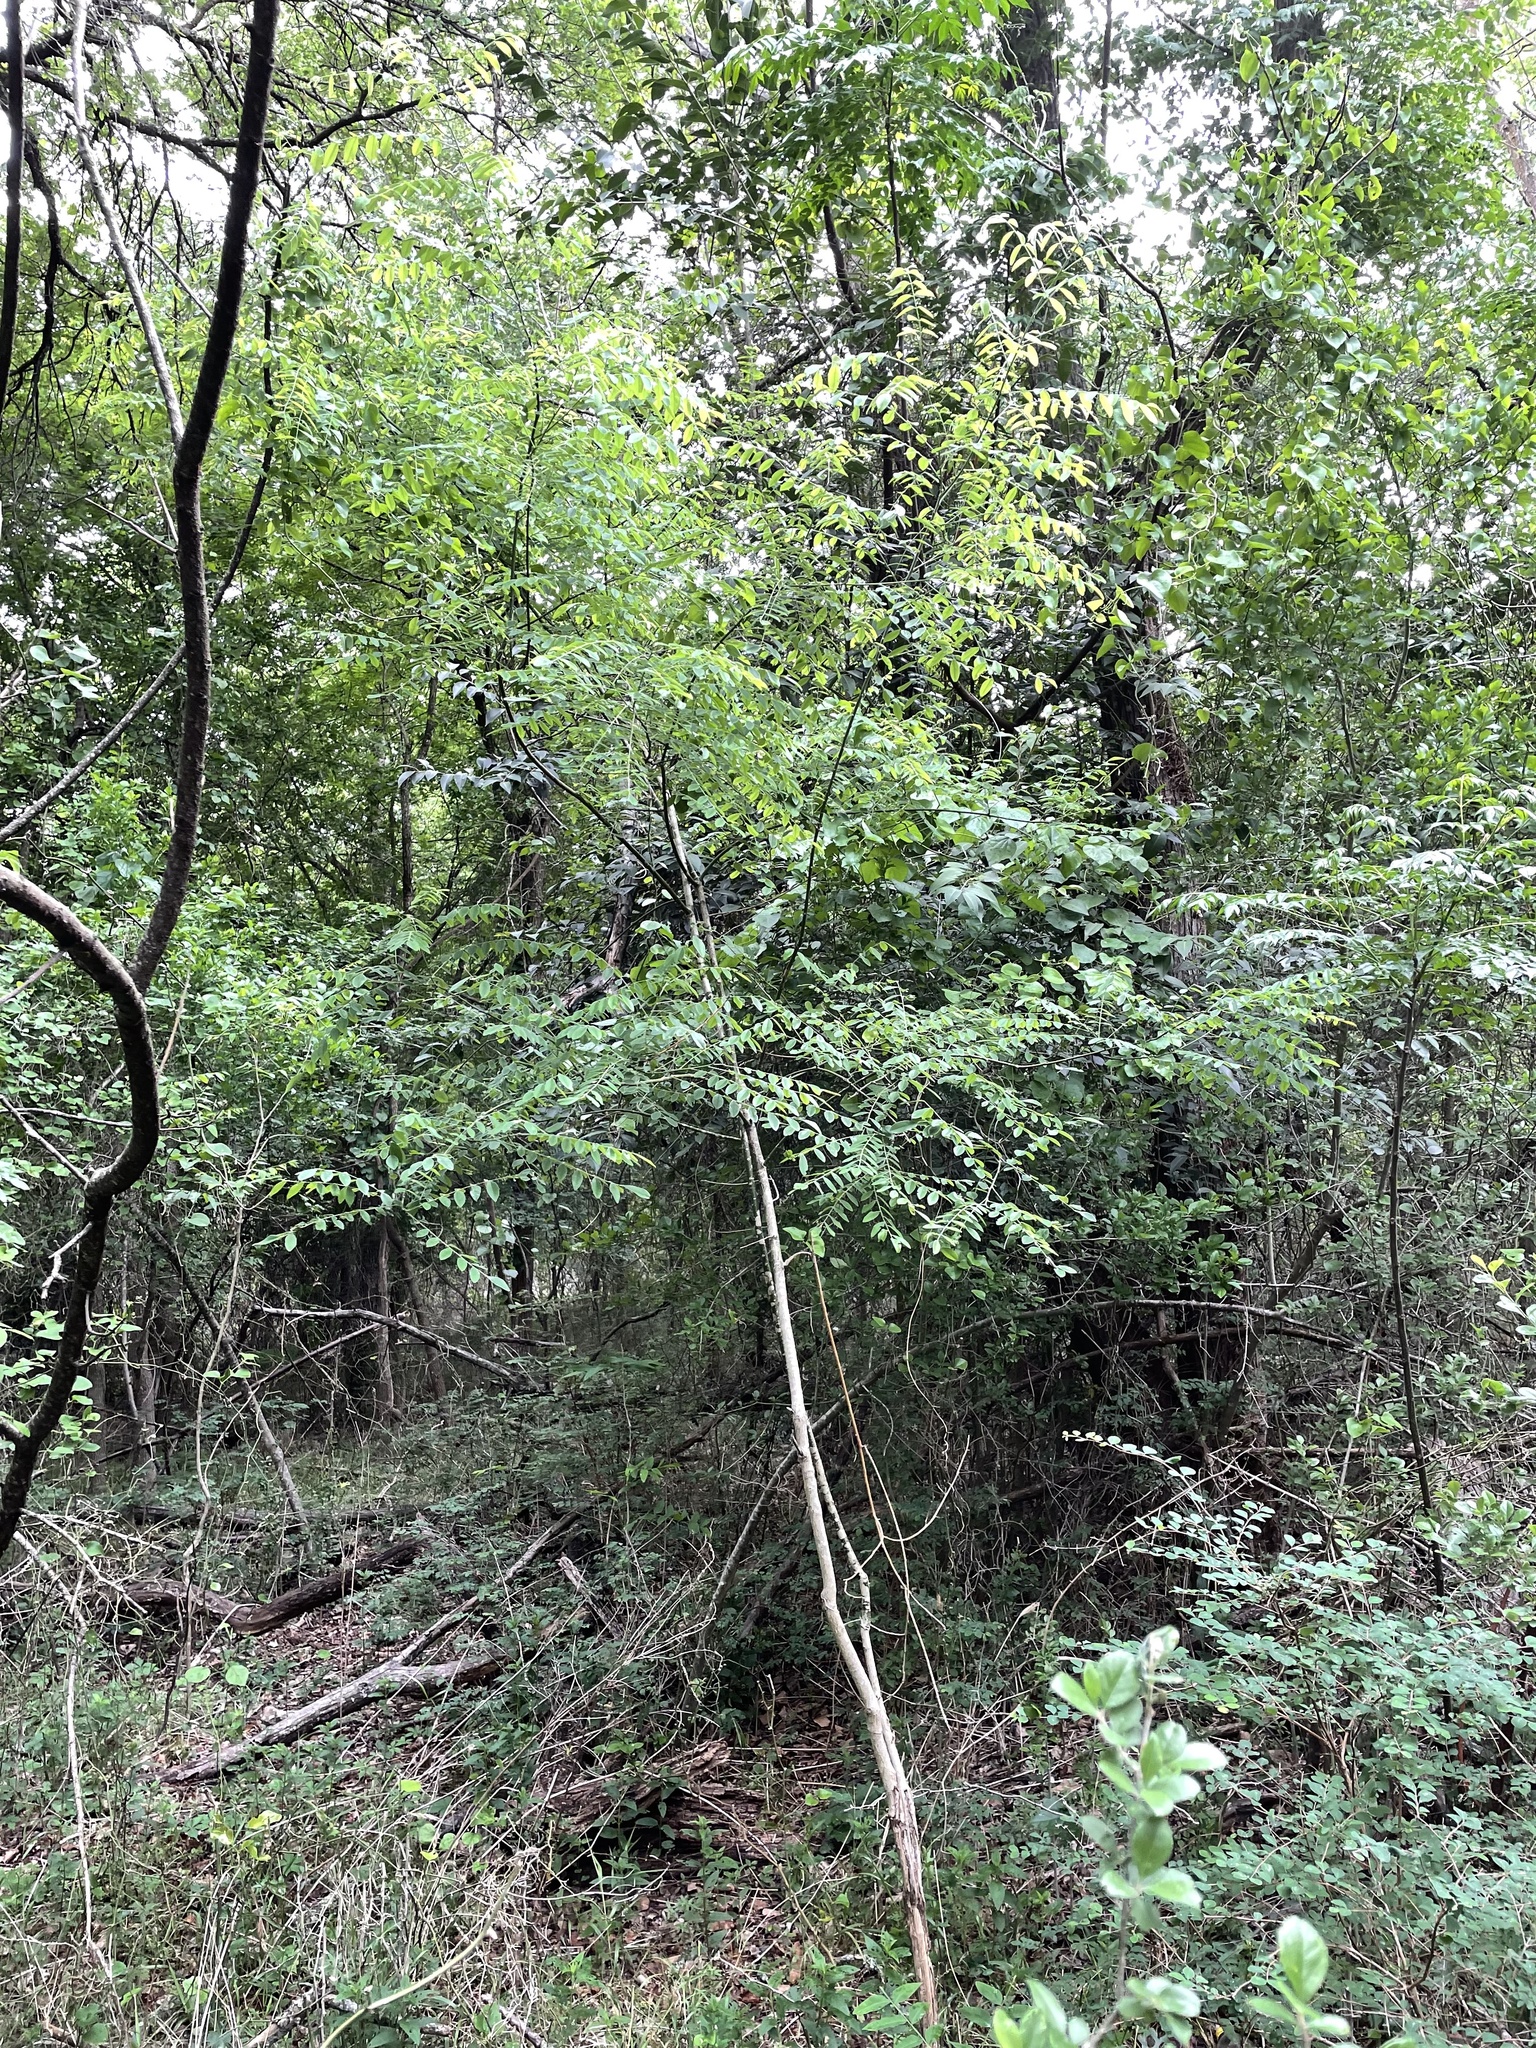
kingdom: Plantae
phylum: Tracheophyta
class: Magnoliopsida
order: Fabales
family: Fabaceae
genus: Styphnolobium
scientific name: Styphnolobium affine
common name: Texas sophora
